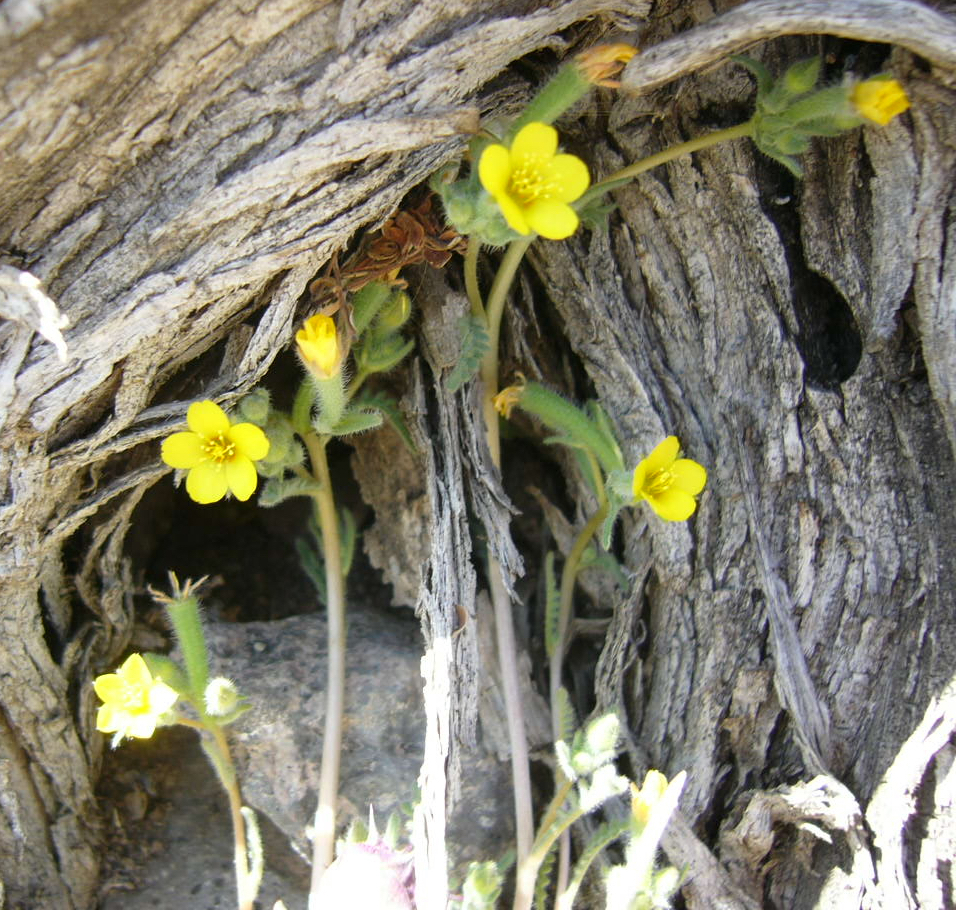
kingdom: Plantae
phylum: Tracheophyta
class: Magnoliopsida
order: Cornales
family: Loasaceae
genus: Mentzelia
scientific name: Mentzelia albicaulis
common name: White-stem blazingstar
